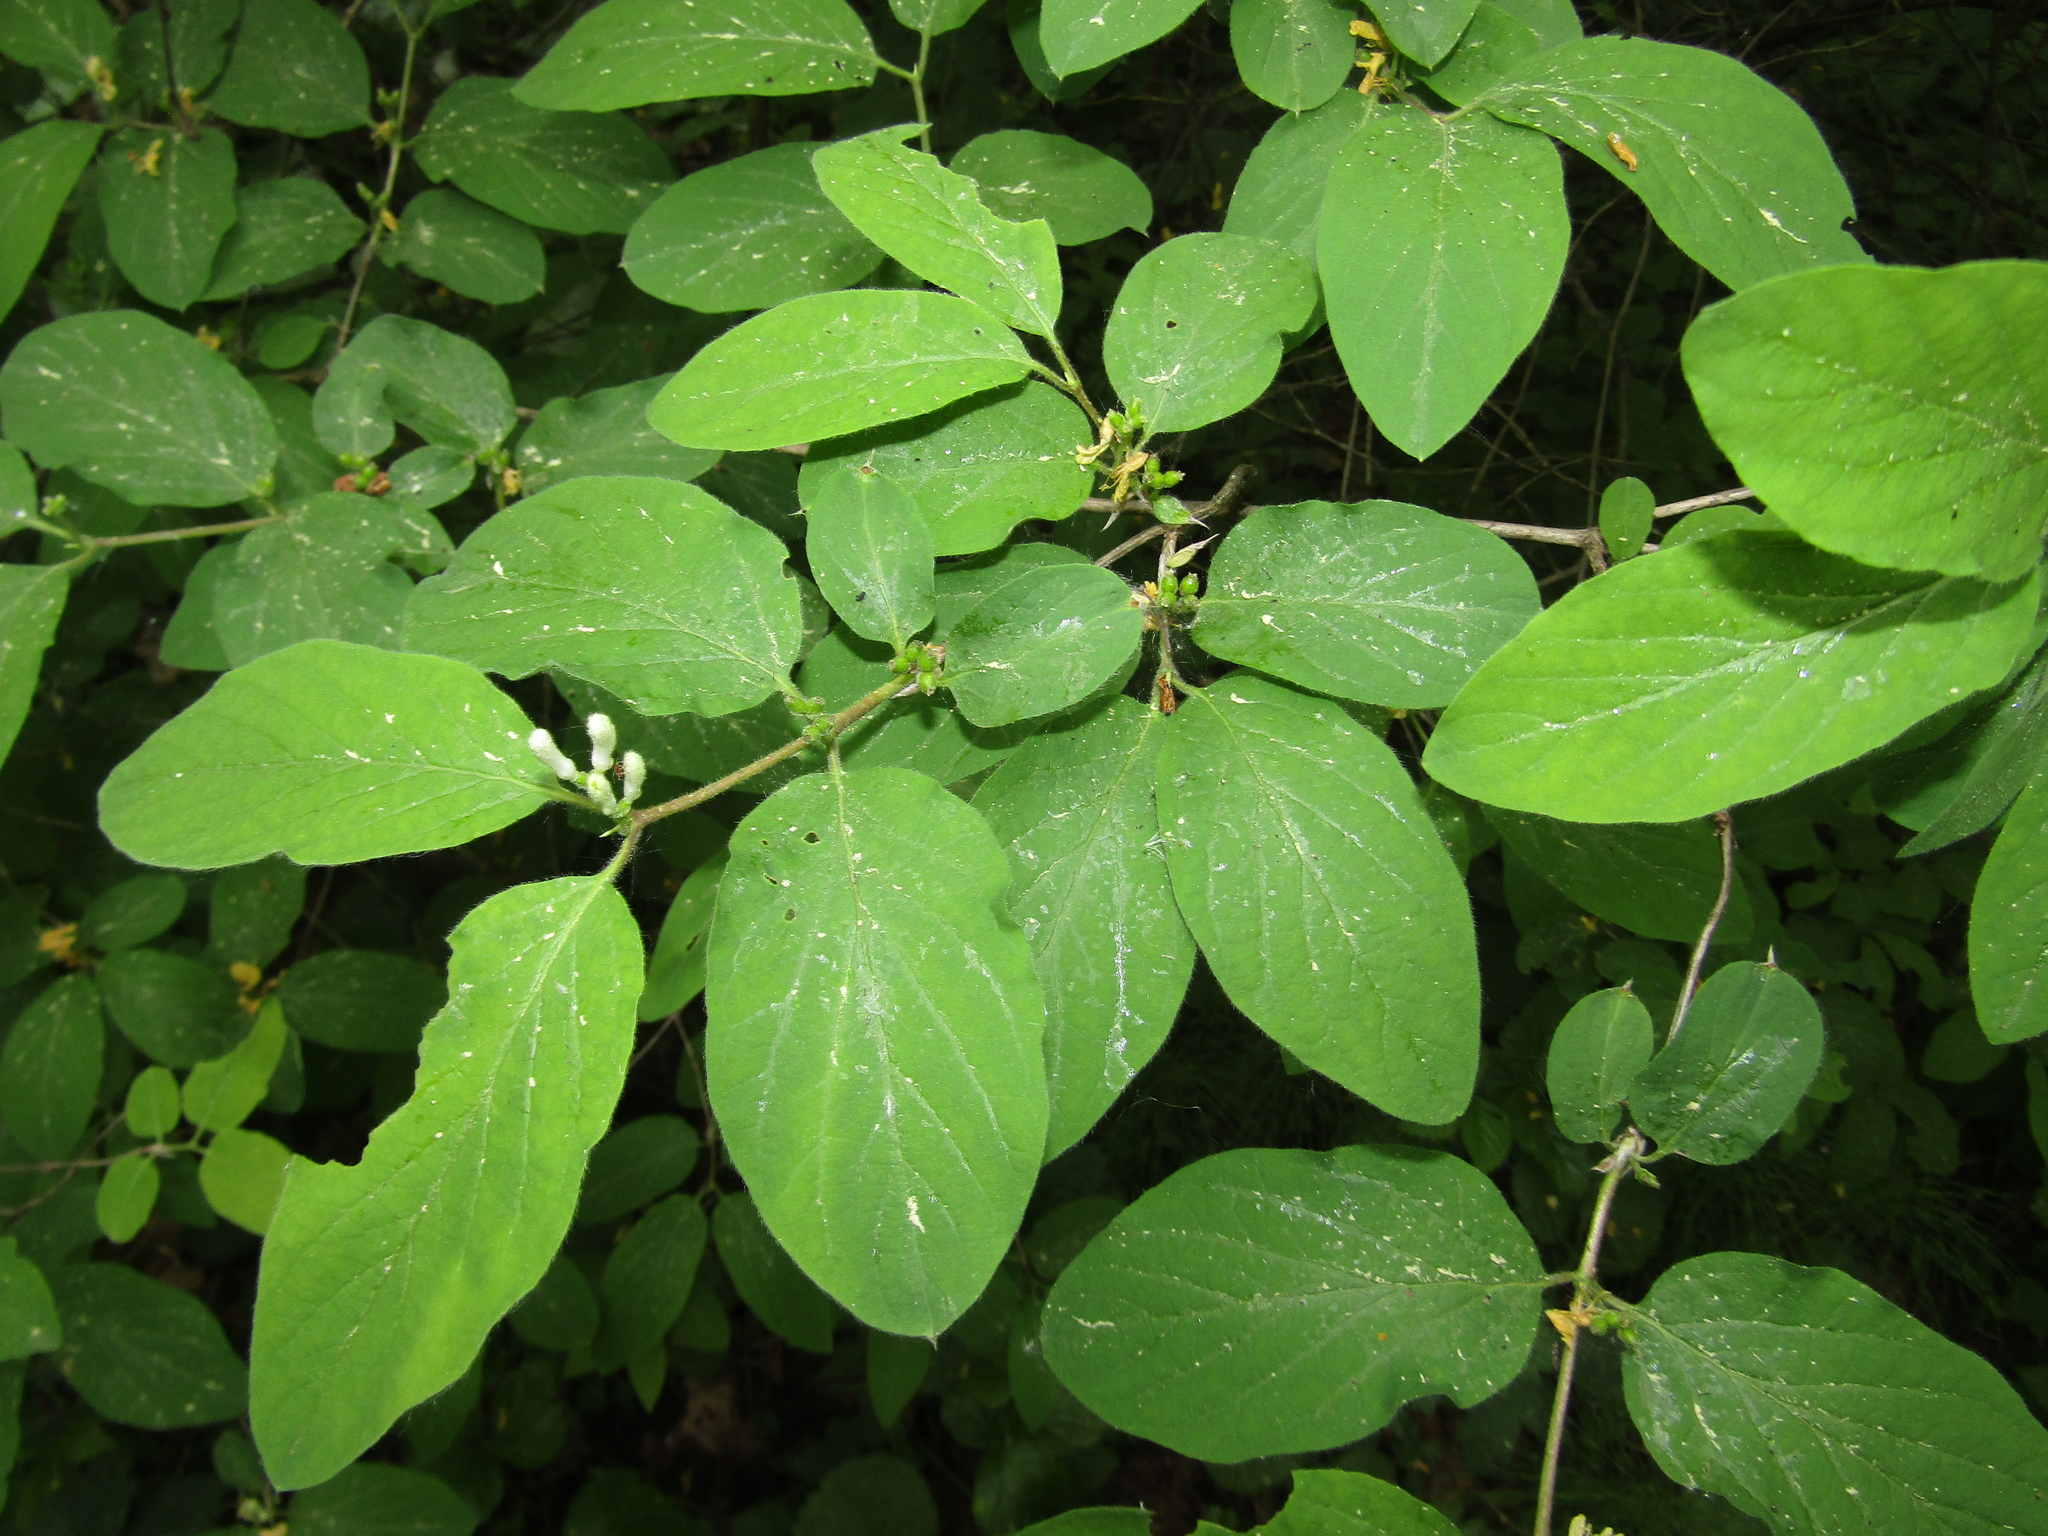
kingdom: Plantae
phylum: Tracheophyta
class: Magnoliopsida
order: Dipsacales
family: Caprifoliaceae
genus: Lonicera
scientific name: Lonicera xylosteum
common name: Fly honeysuckle
